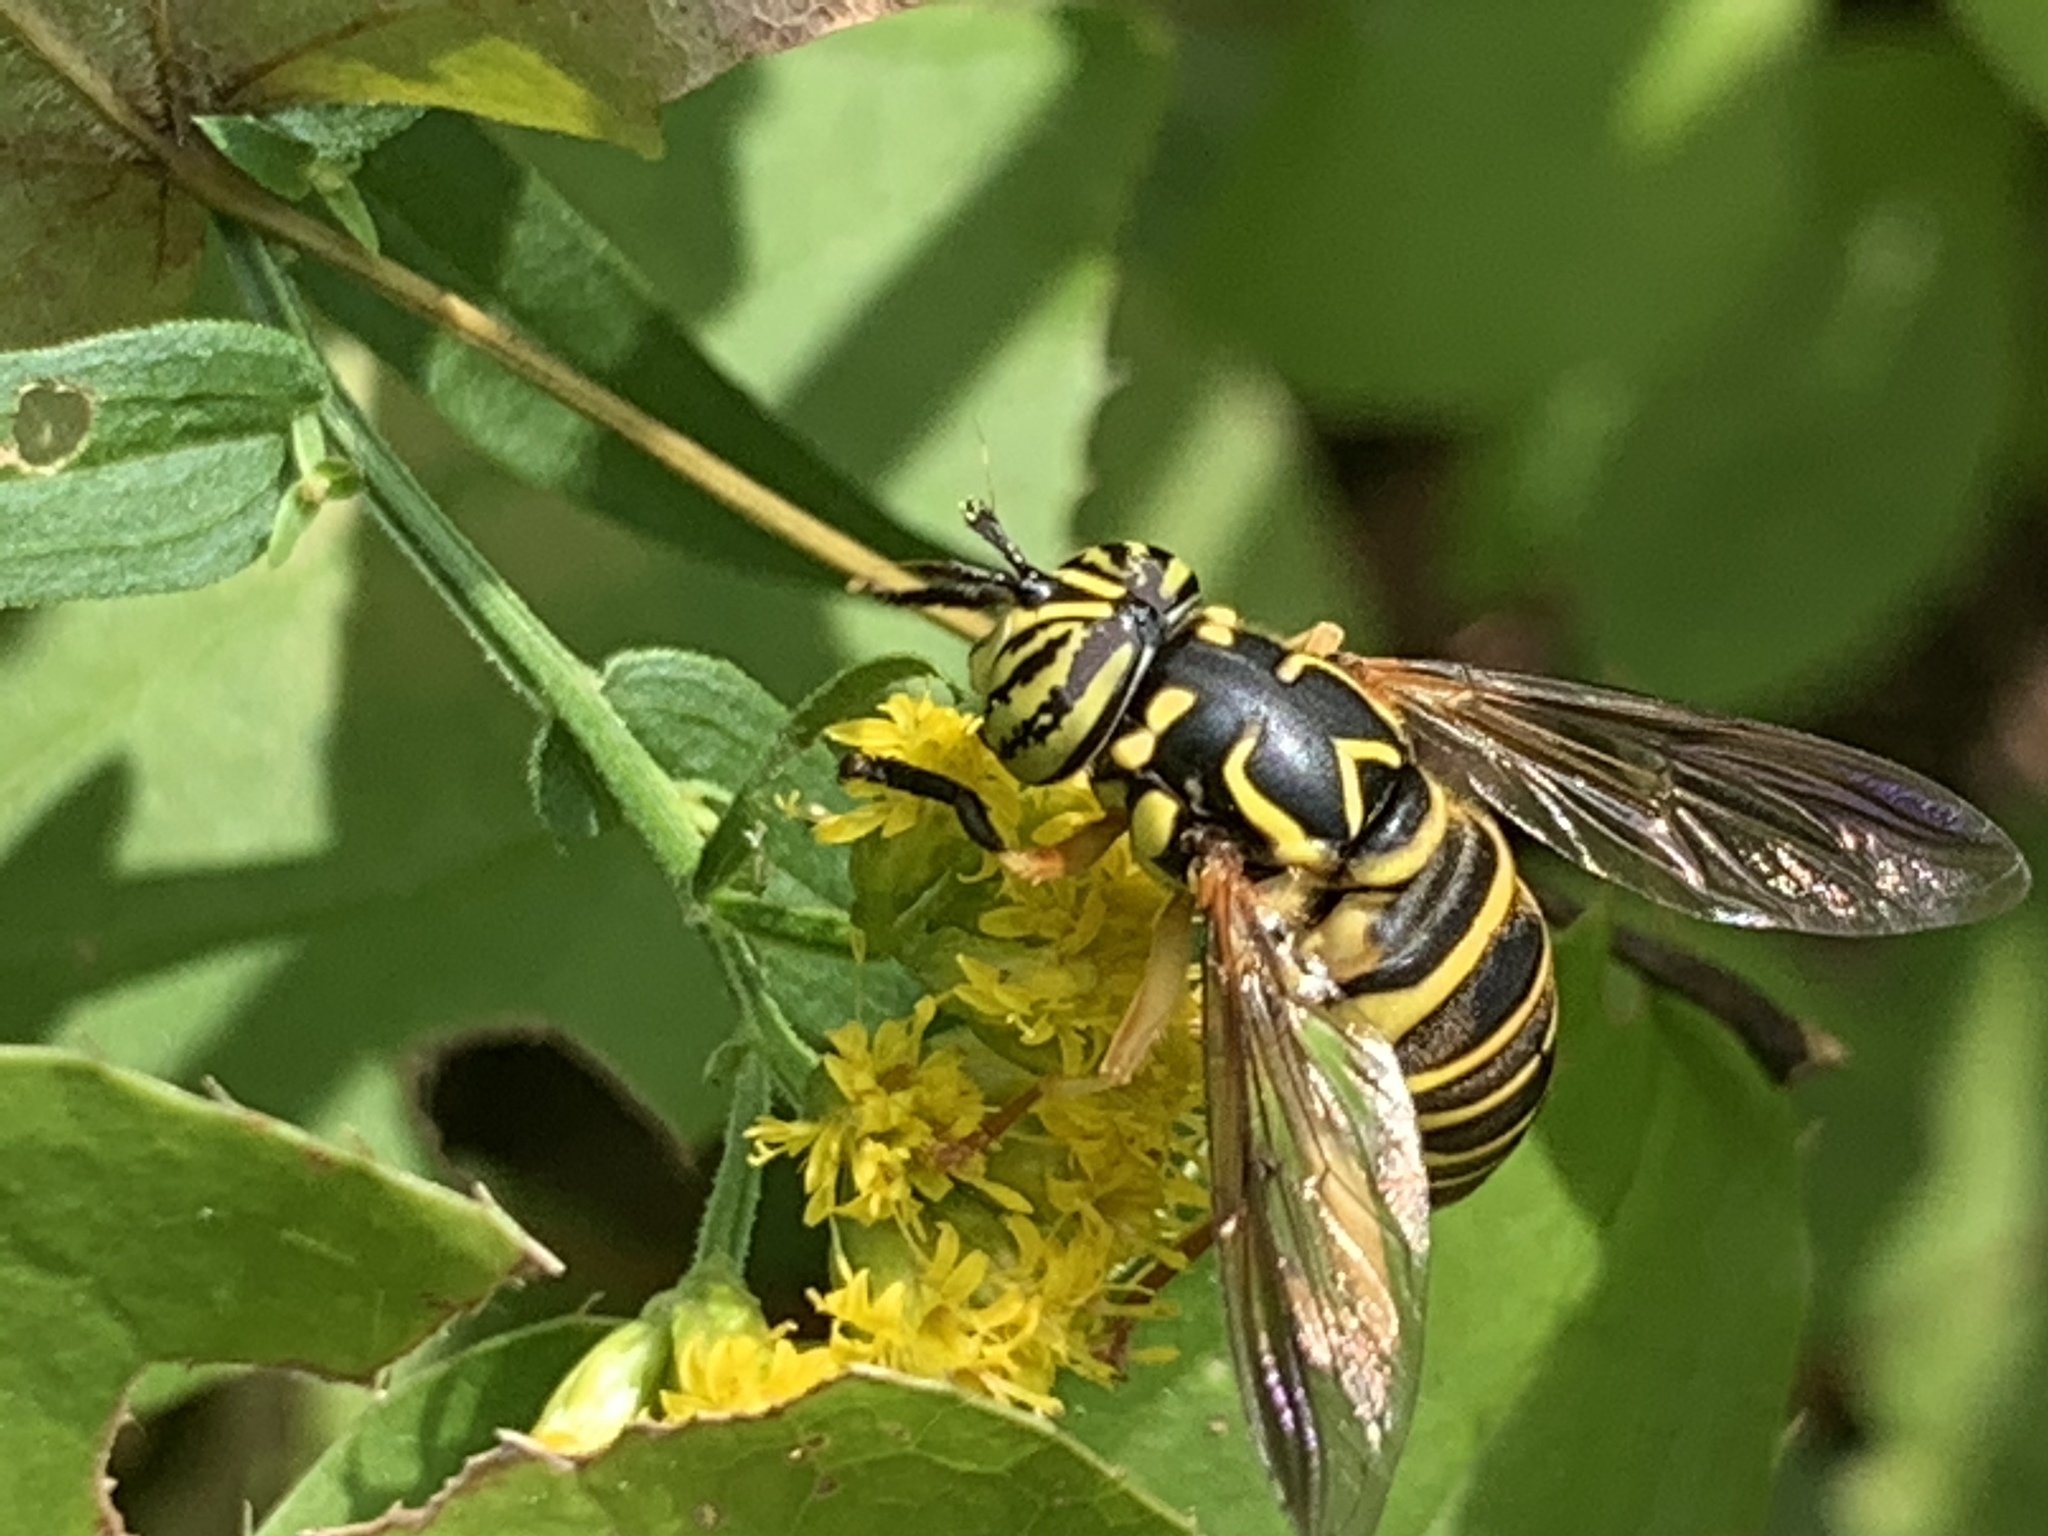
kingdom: Animalia
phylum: Arthropoda
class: Insecta
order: Diptera
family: Syrphidae
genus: Spilomyia
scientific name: Spilomyia longicornis
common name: Eastern hornet fly
